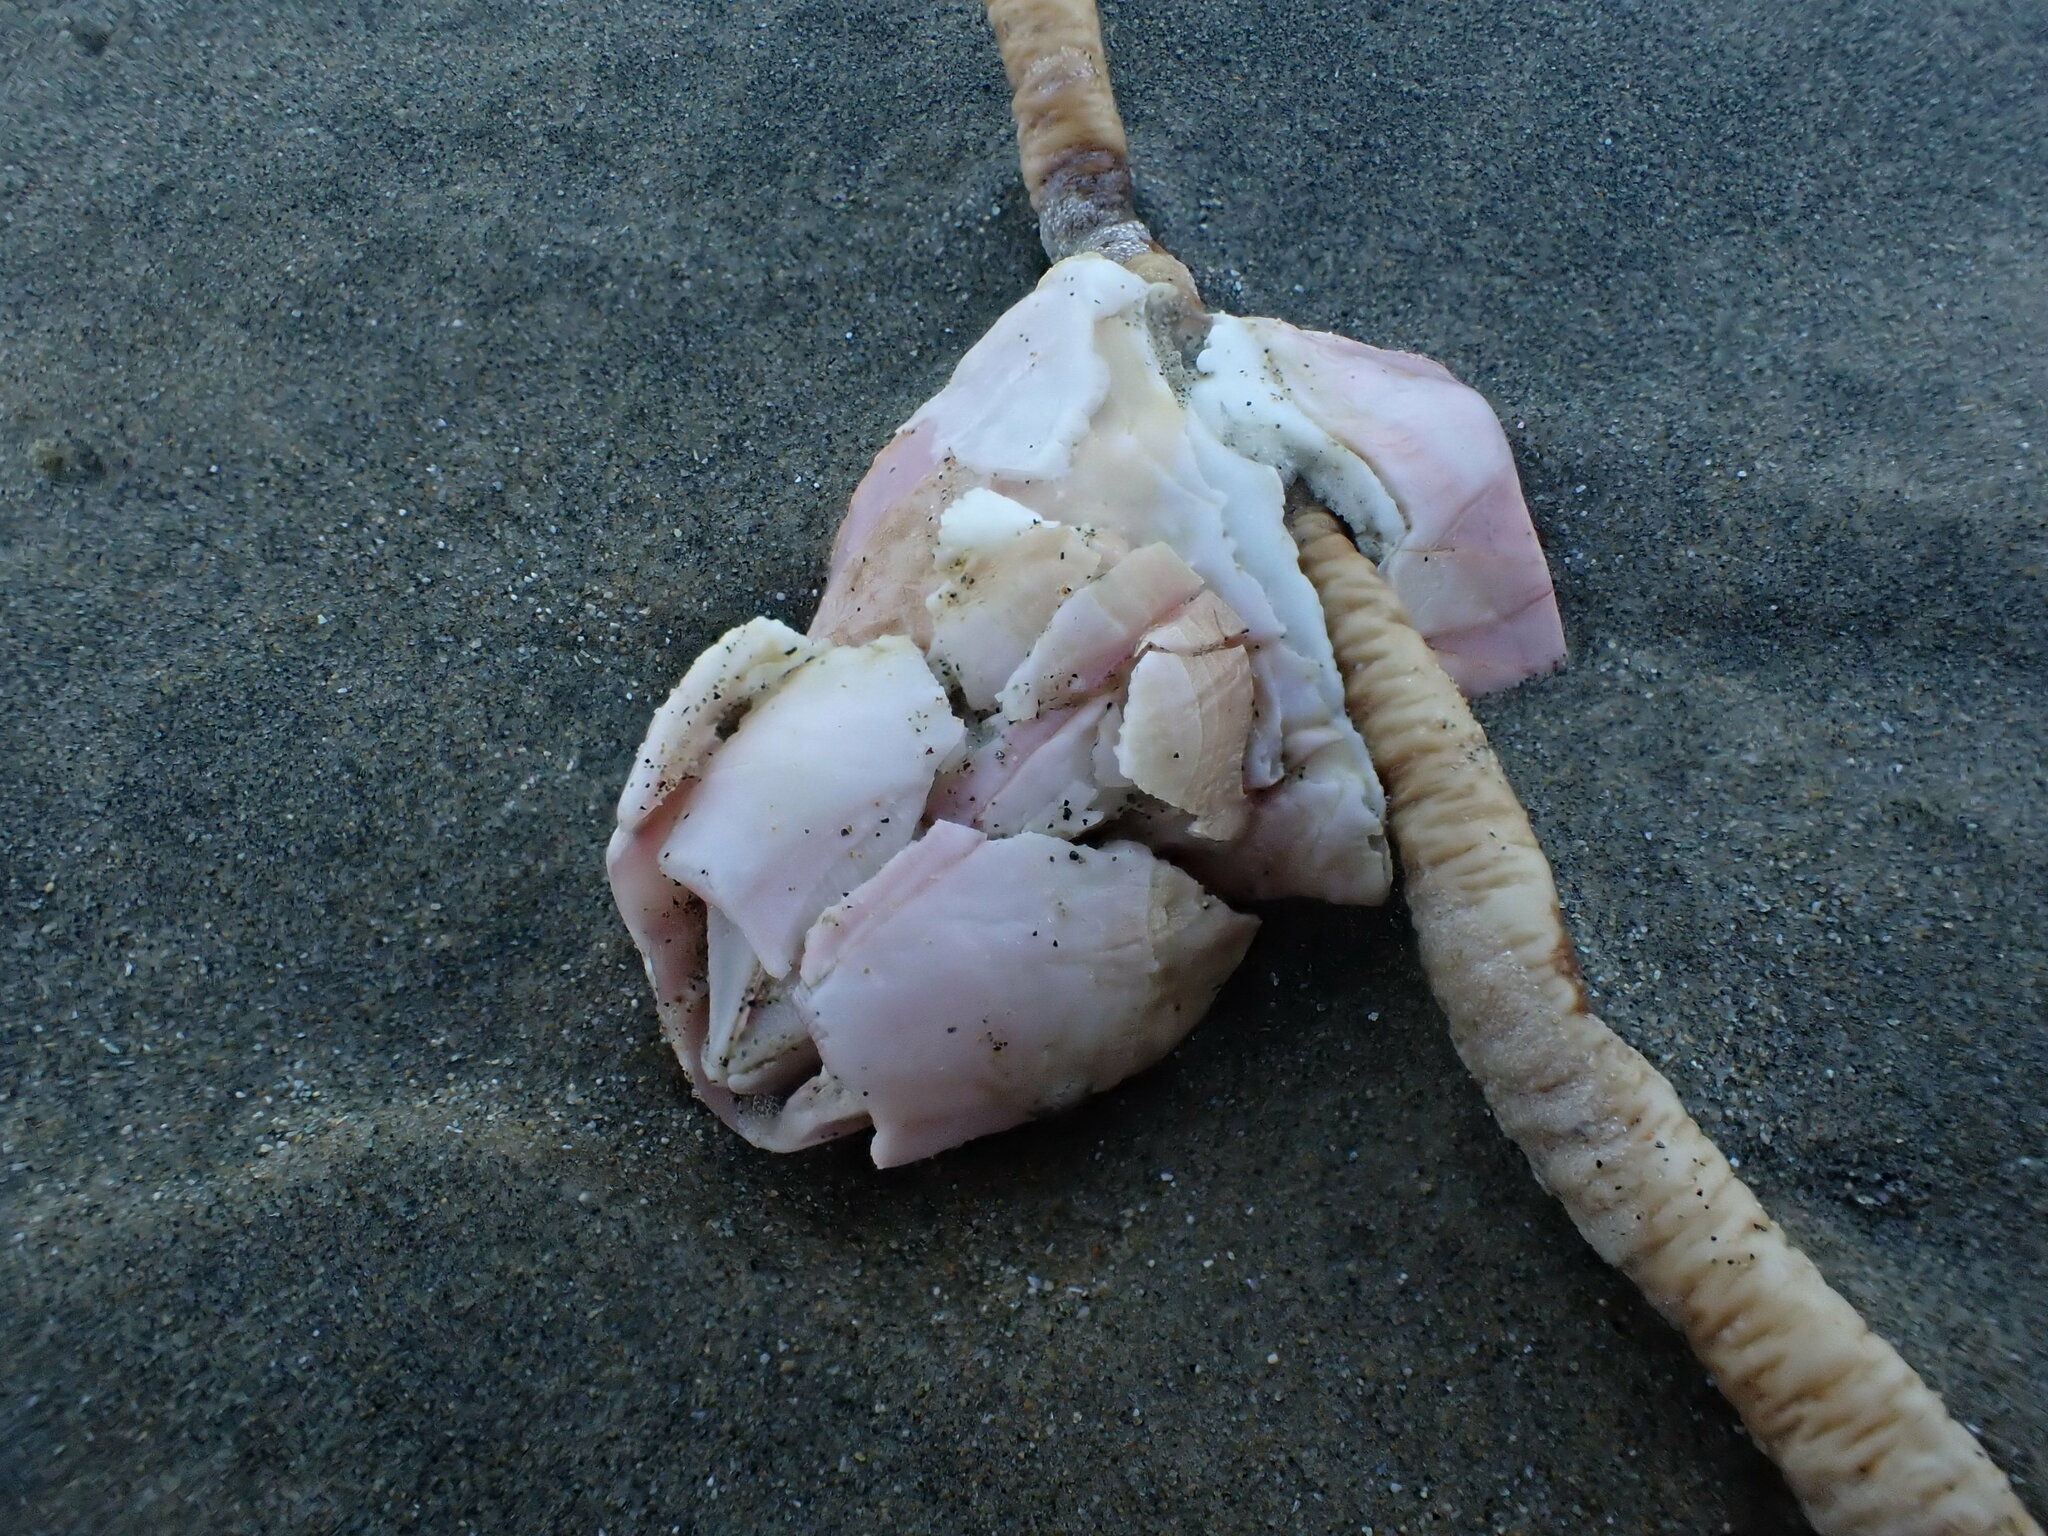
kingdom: Animalia
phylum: Arthropoda
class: Maxillopoda
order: Sessilia
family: Balanidae
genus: Notomegabalanus
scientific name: Notomegabalanus decorus
